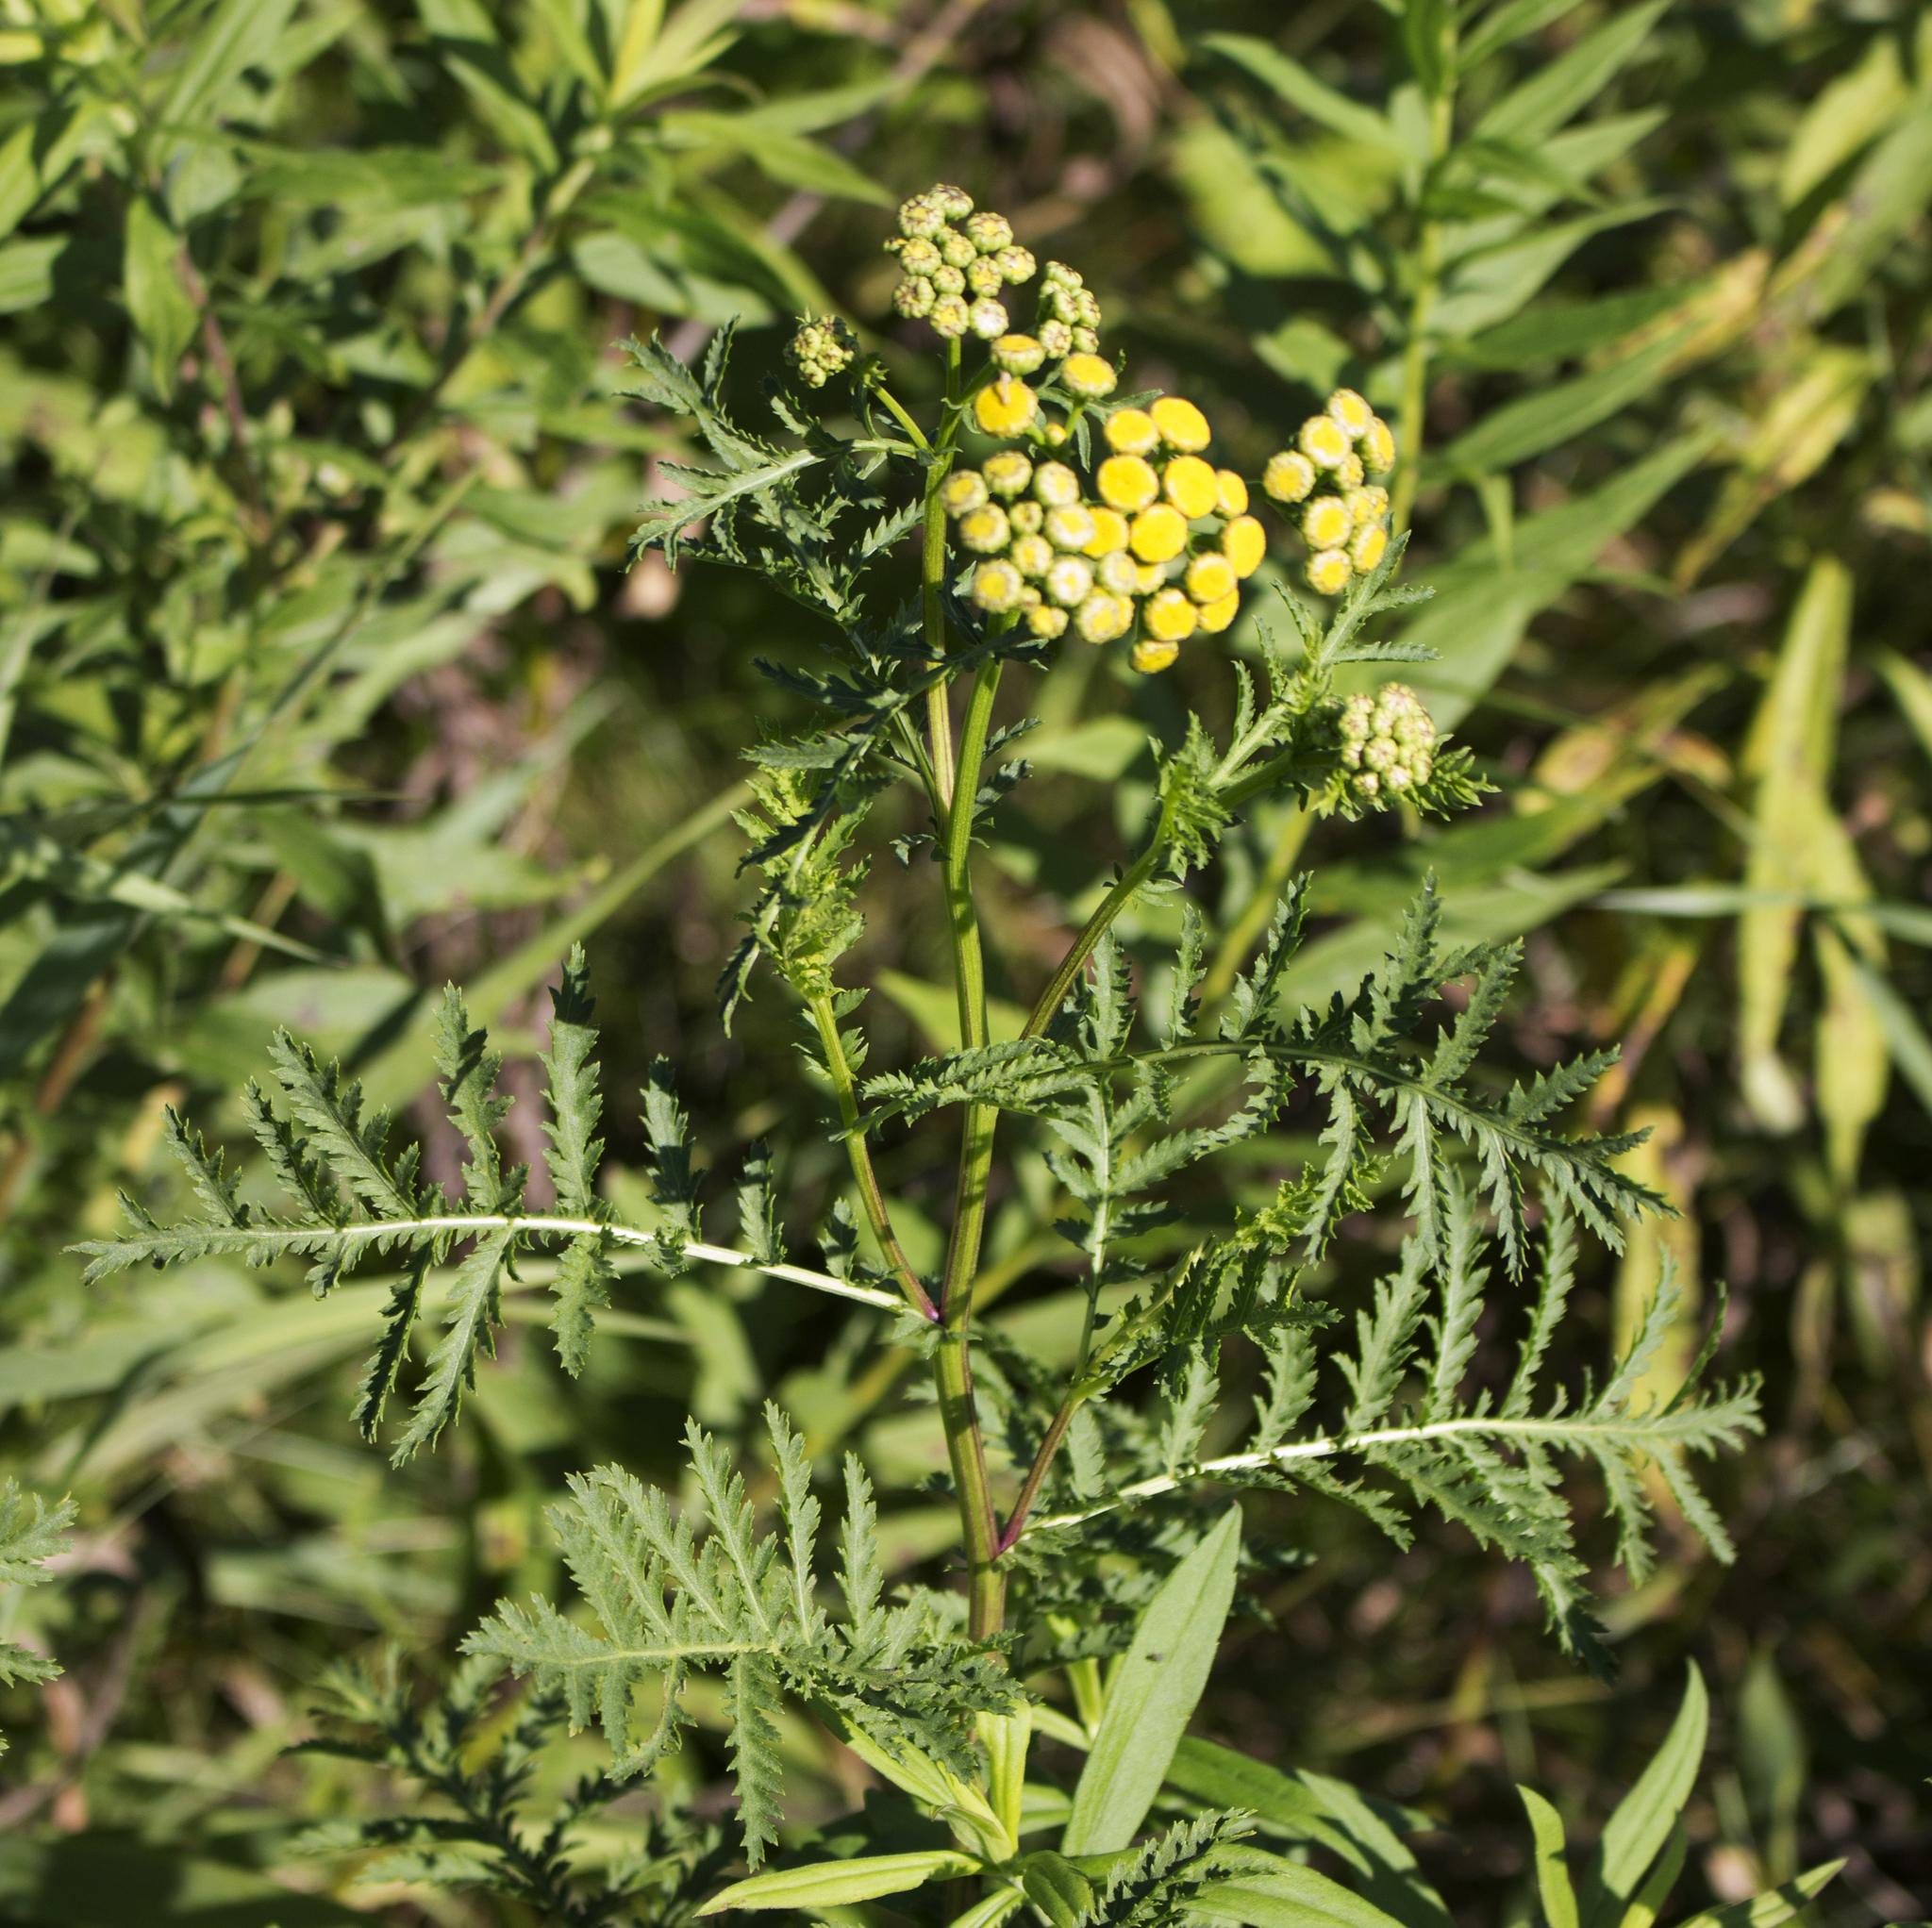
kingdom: Plantae
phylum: Tracheophyta
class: Magnoliopsida
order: Asterales
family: Asteraceae
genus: Tanacetum
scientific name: Tanacetum vulgare
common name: Common tansy
